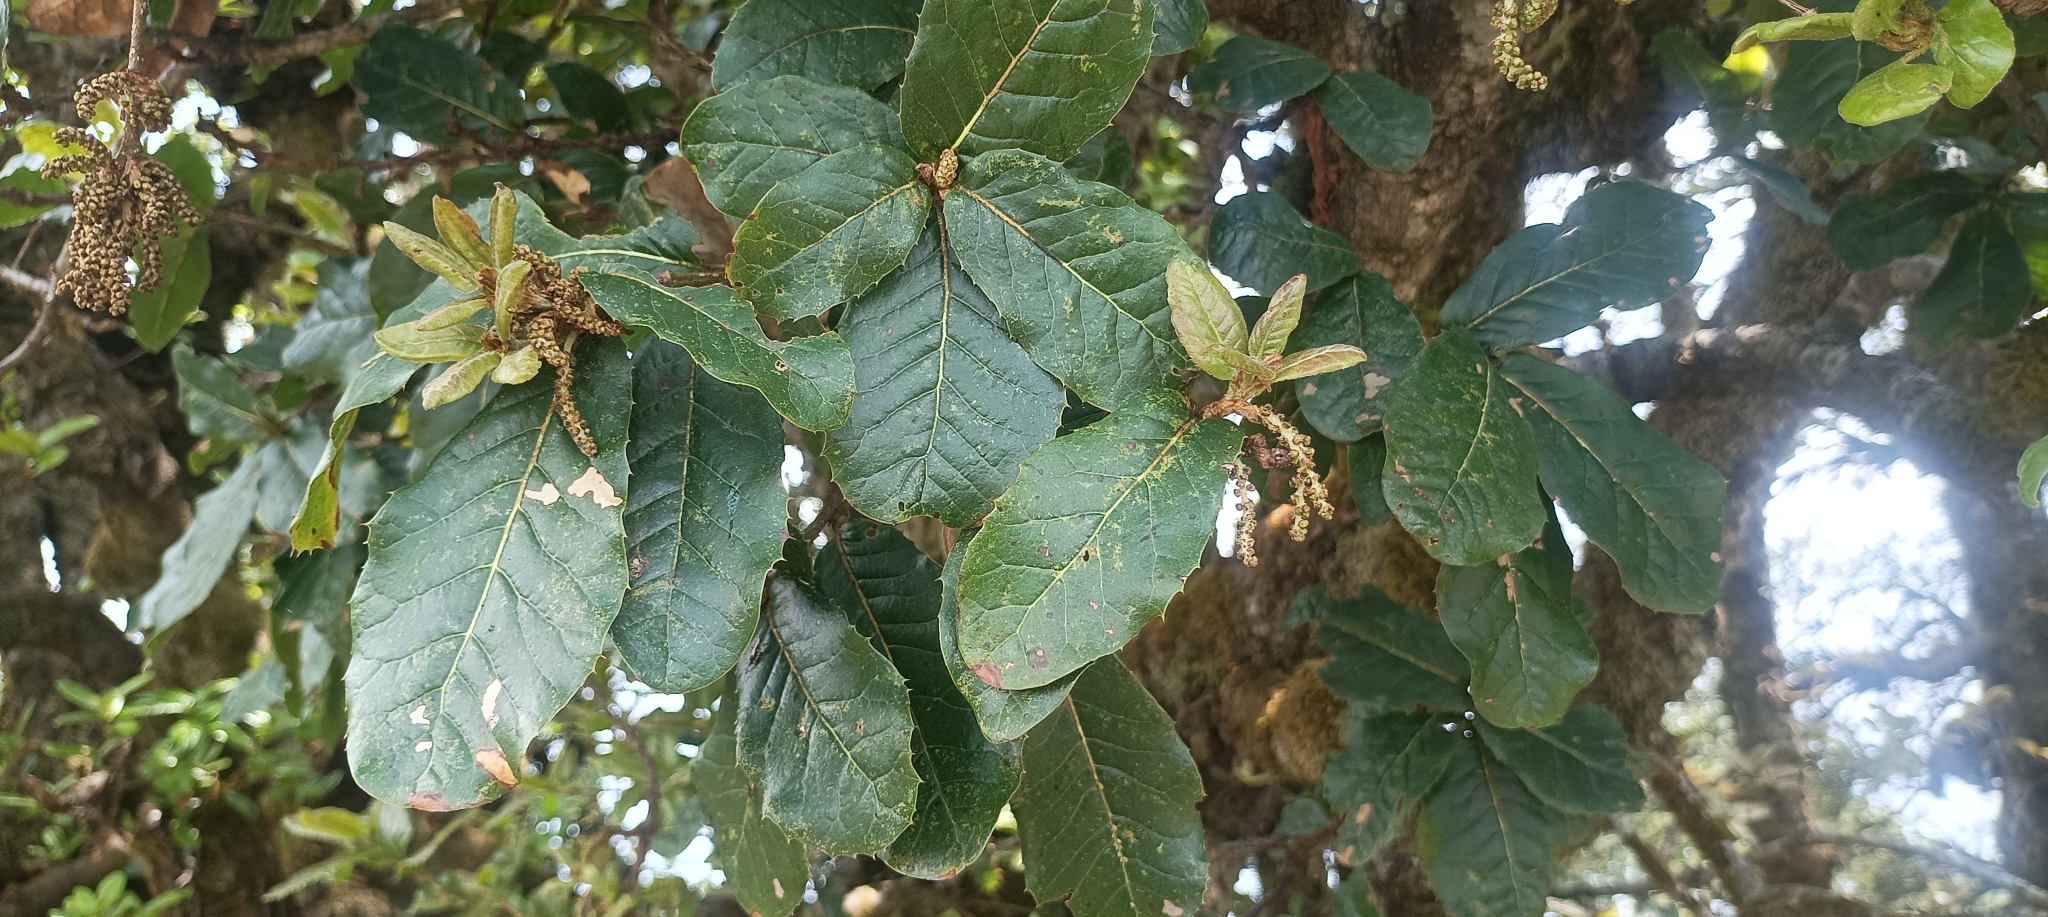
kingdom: Plantae
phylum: Tracheophyta
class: Magnoliopsida
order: Fagales
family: Fagaceae
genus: Quercus
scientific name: Quercus semecarpifolia
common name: Brown oak
